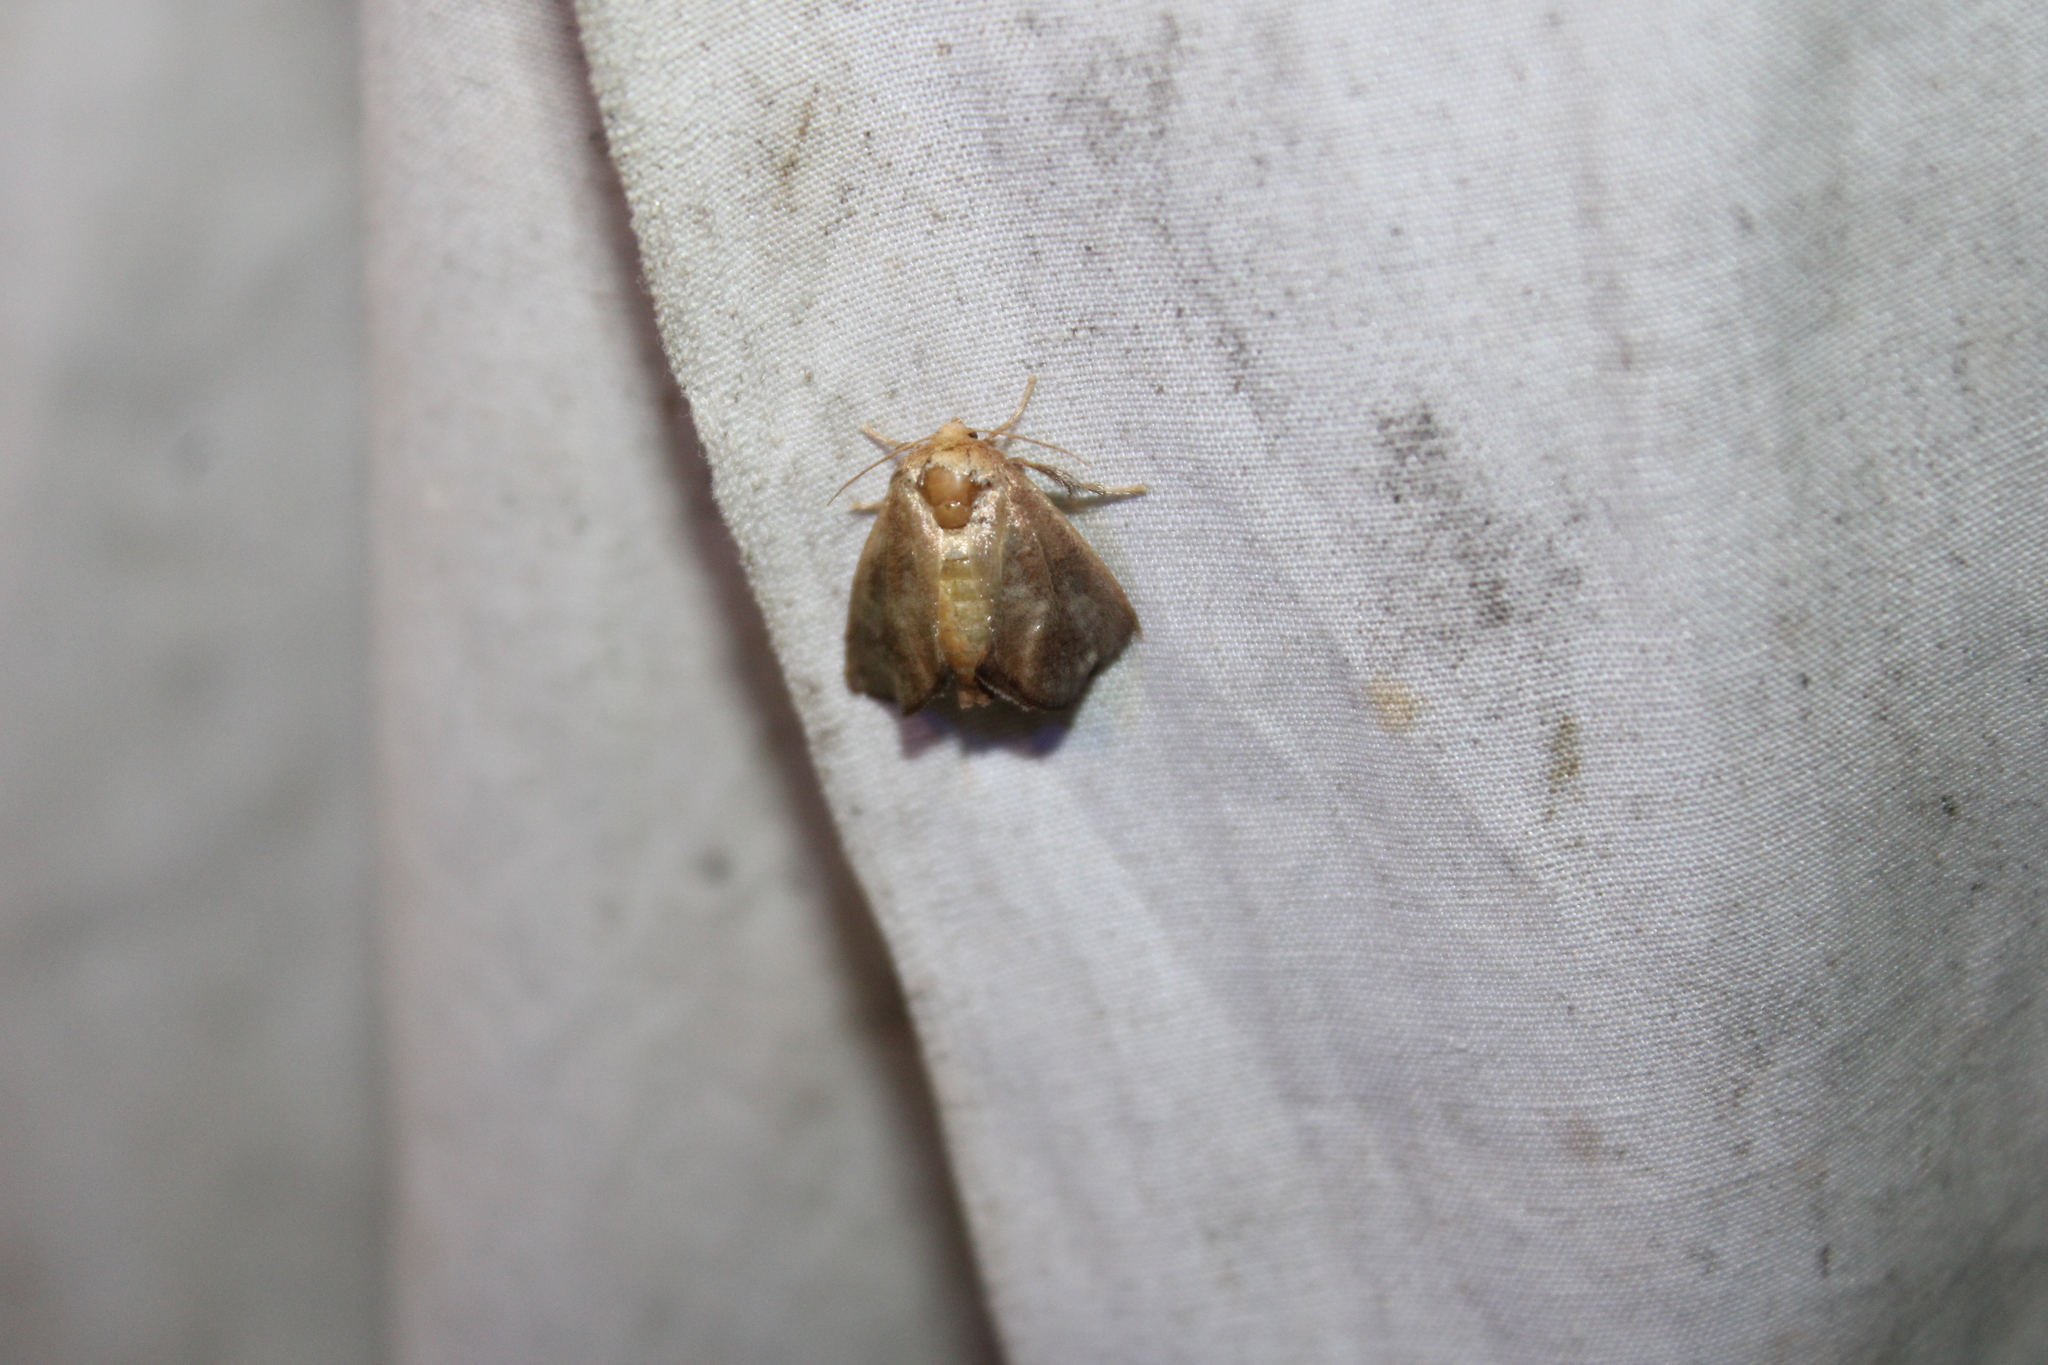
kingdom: Animalia
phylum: Arthropoda
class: Insecta
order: Lepidoptera
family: Limacodidae
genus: Isa
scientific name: Isa textula
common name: Crowned slug moth
